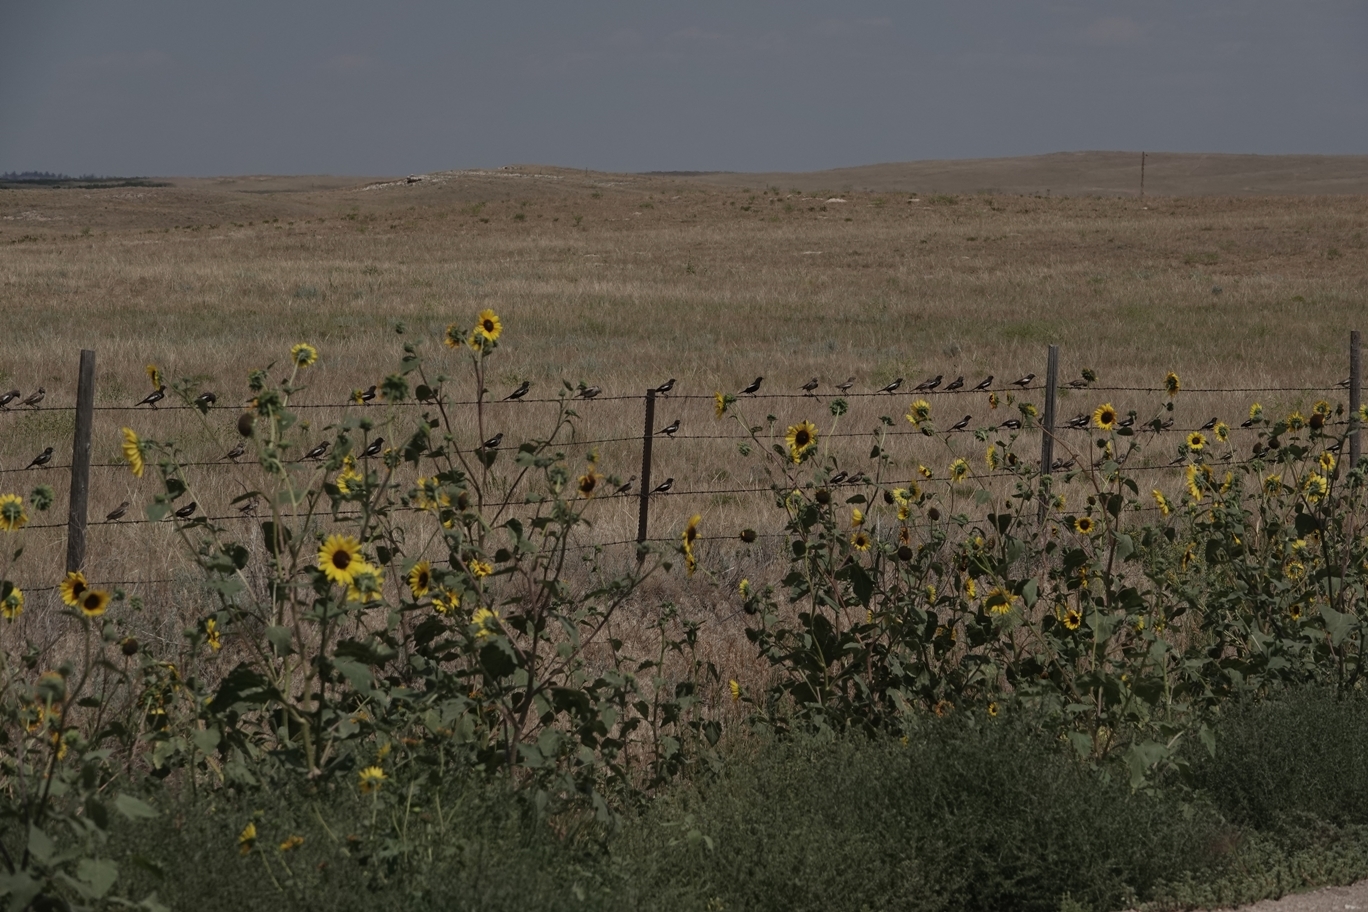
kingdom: Animalia
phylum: Chordata
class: Aves
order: Passeriformes
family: Passerellidae
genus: Calamospiza
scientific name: Calamospiza melanocorys
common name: Lark bunting
